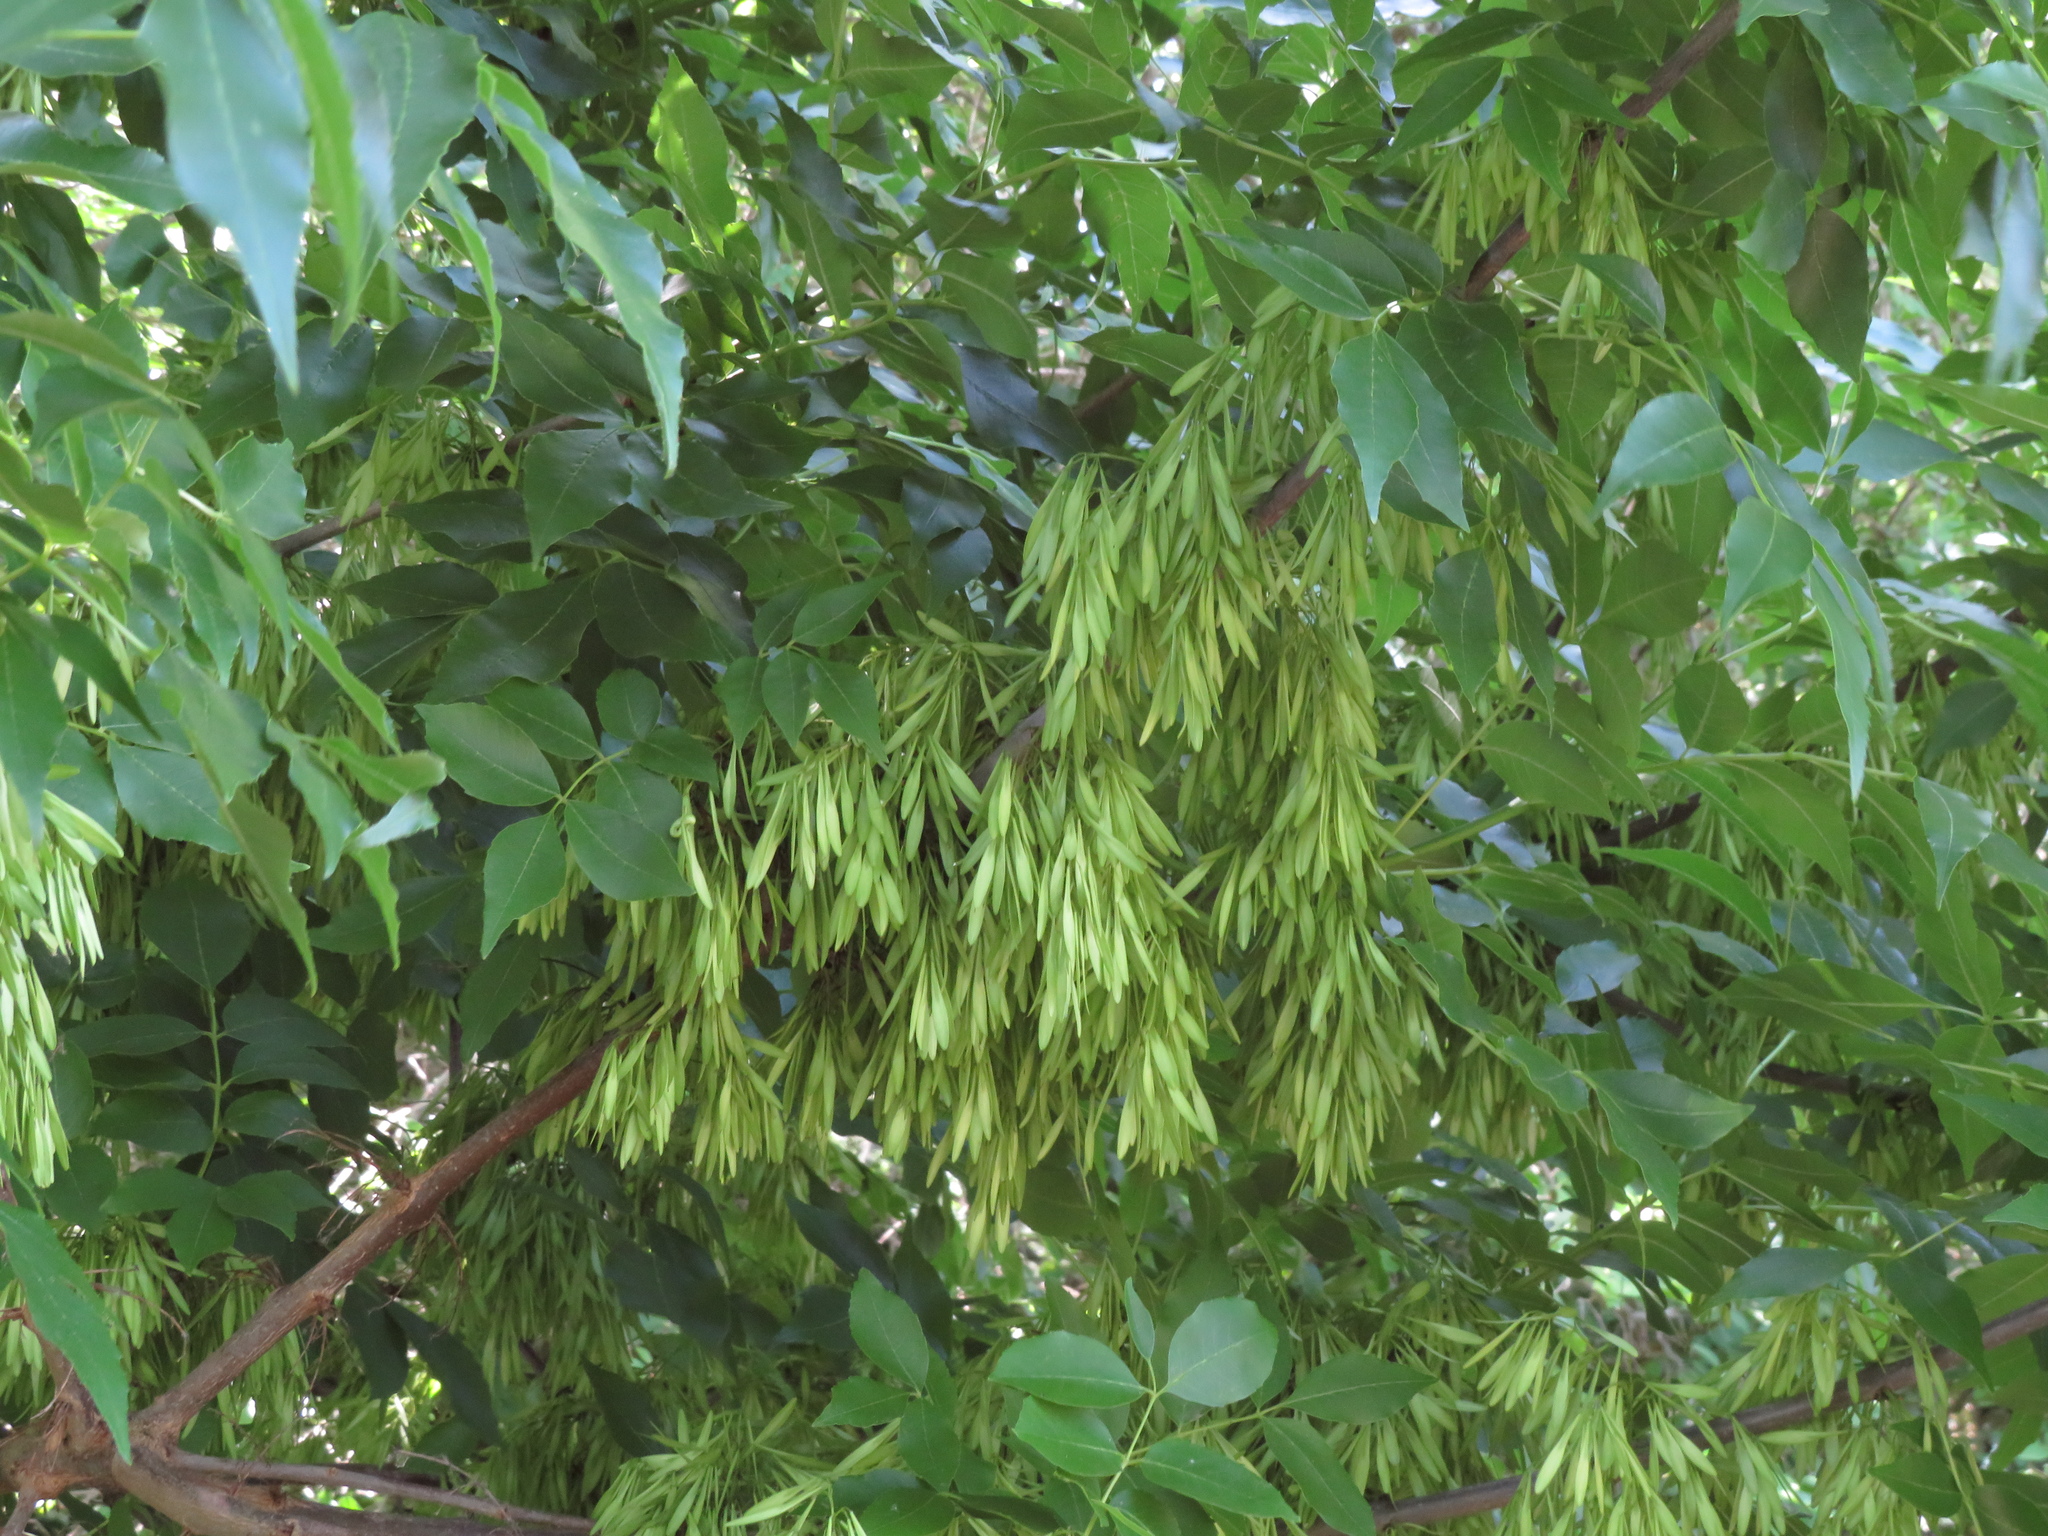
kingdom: Plantae
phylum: Tracheophyta
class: Magnoliopsida
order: Lamiales
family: Oleaceae
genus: Fraxinus
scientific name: Fraxinus pennsylvanica
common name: Green ash
